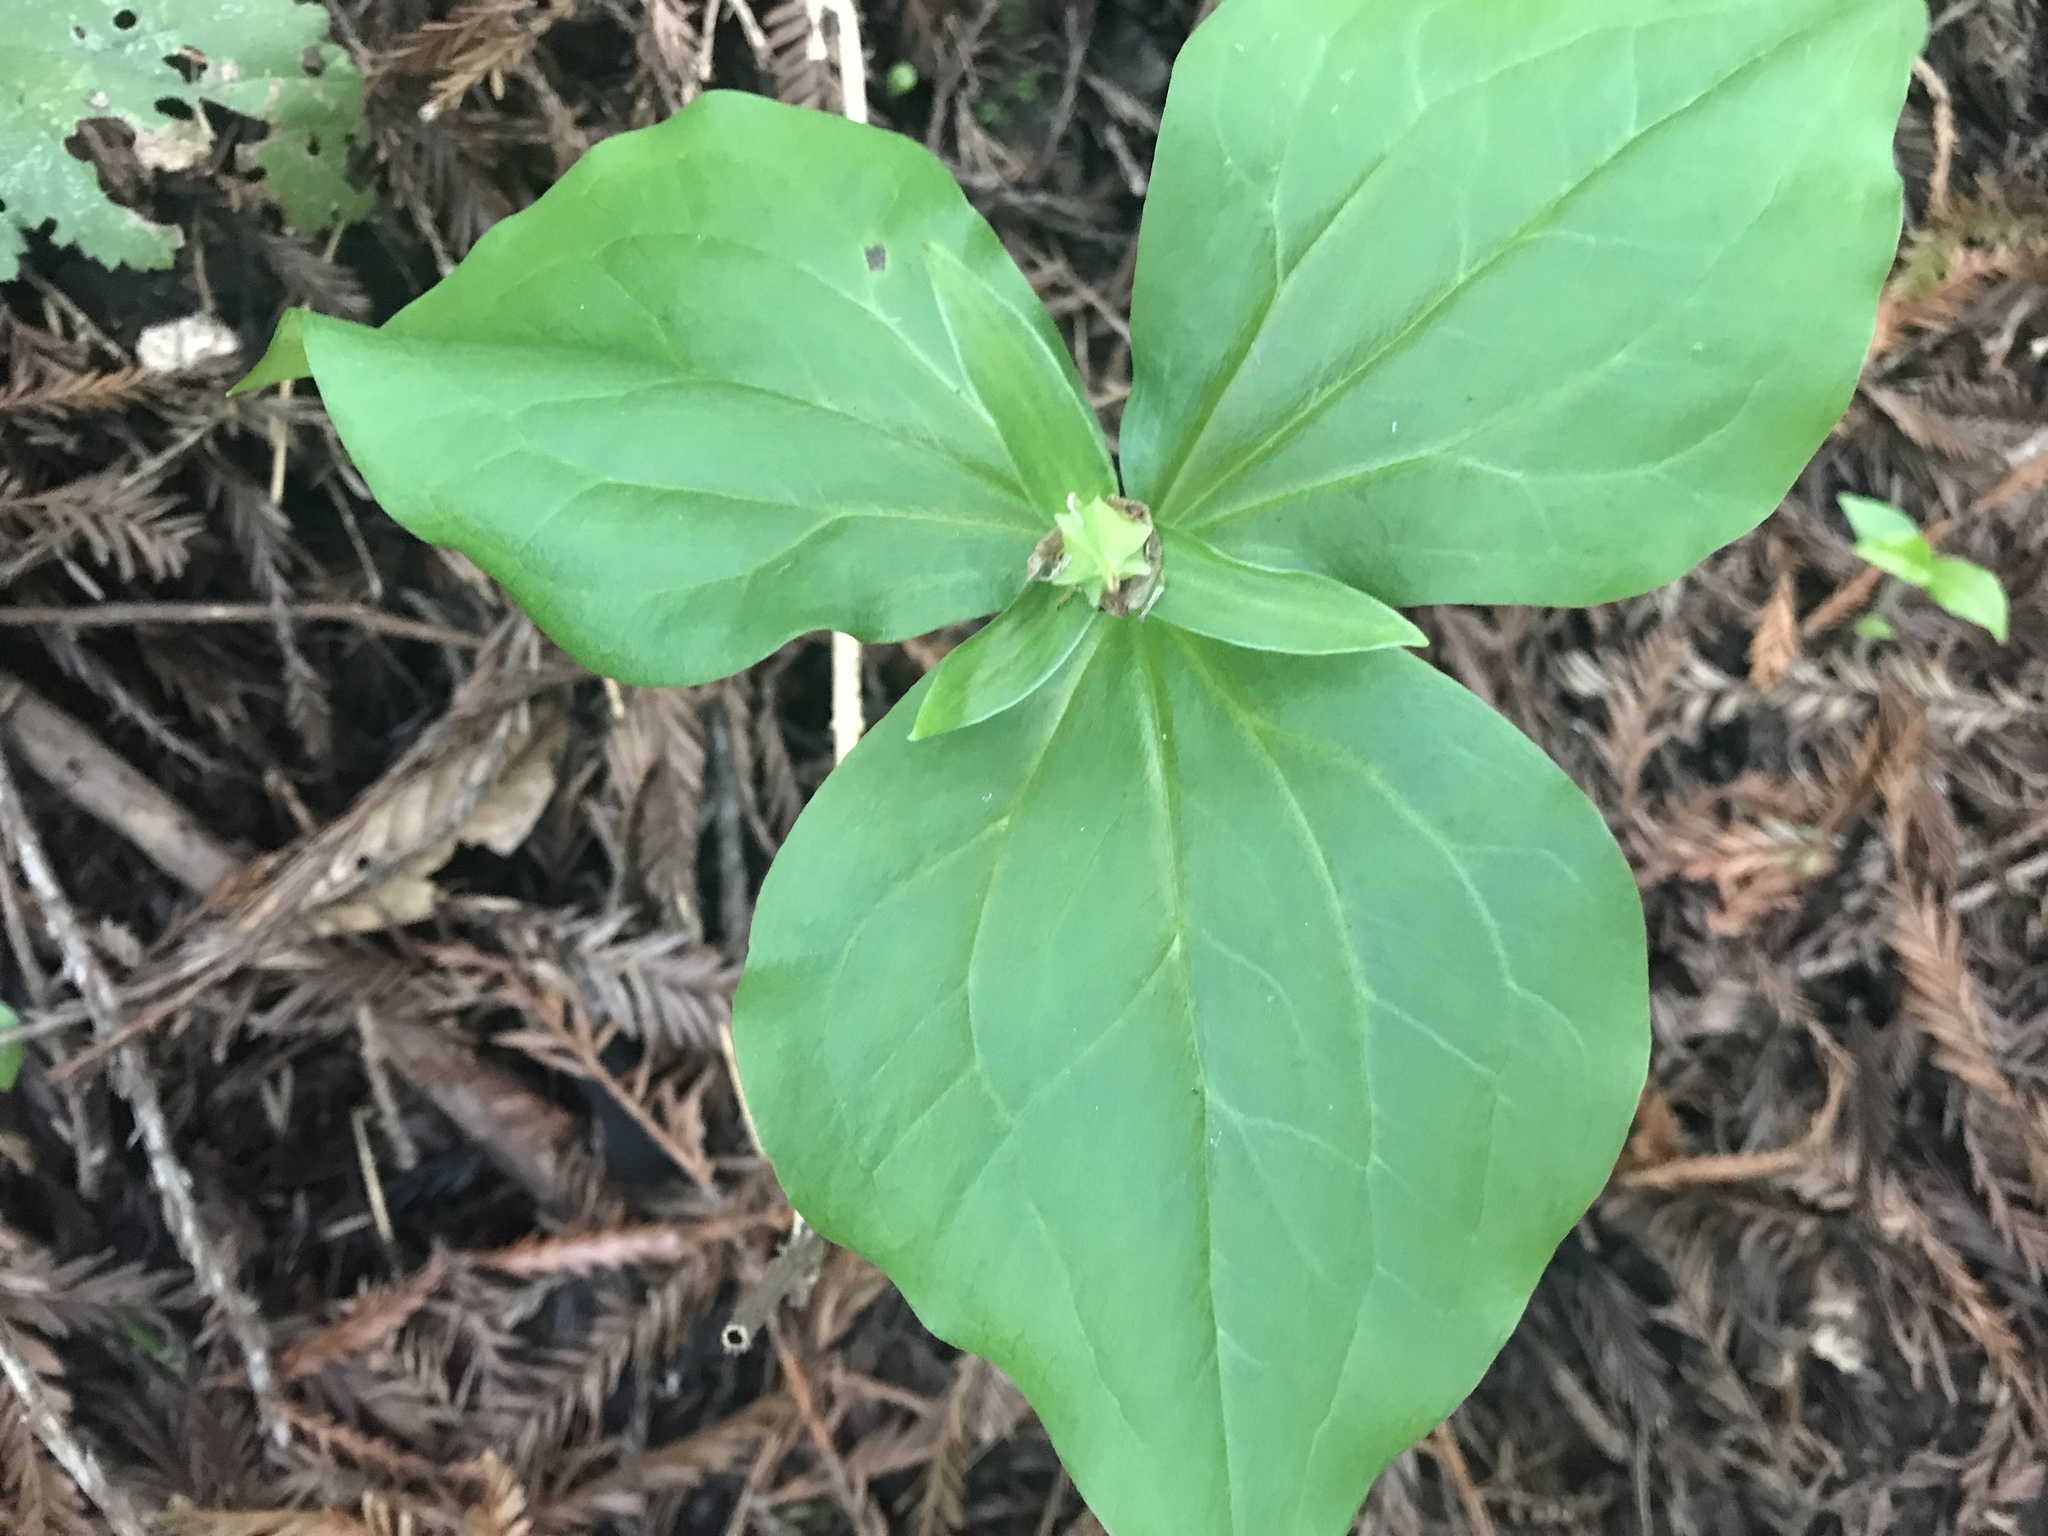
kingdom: Plantae
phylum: Tracheophyta
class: Liliopsida
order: Liliales
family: Melanthiaceae
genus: Trillium
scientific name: Trillium ovatum
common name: Pacific trillium
